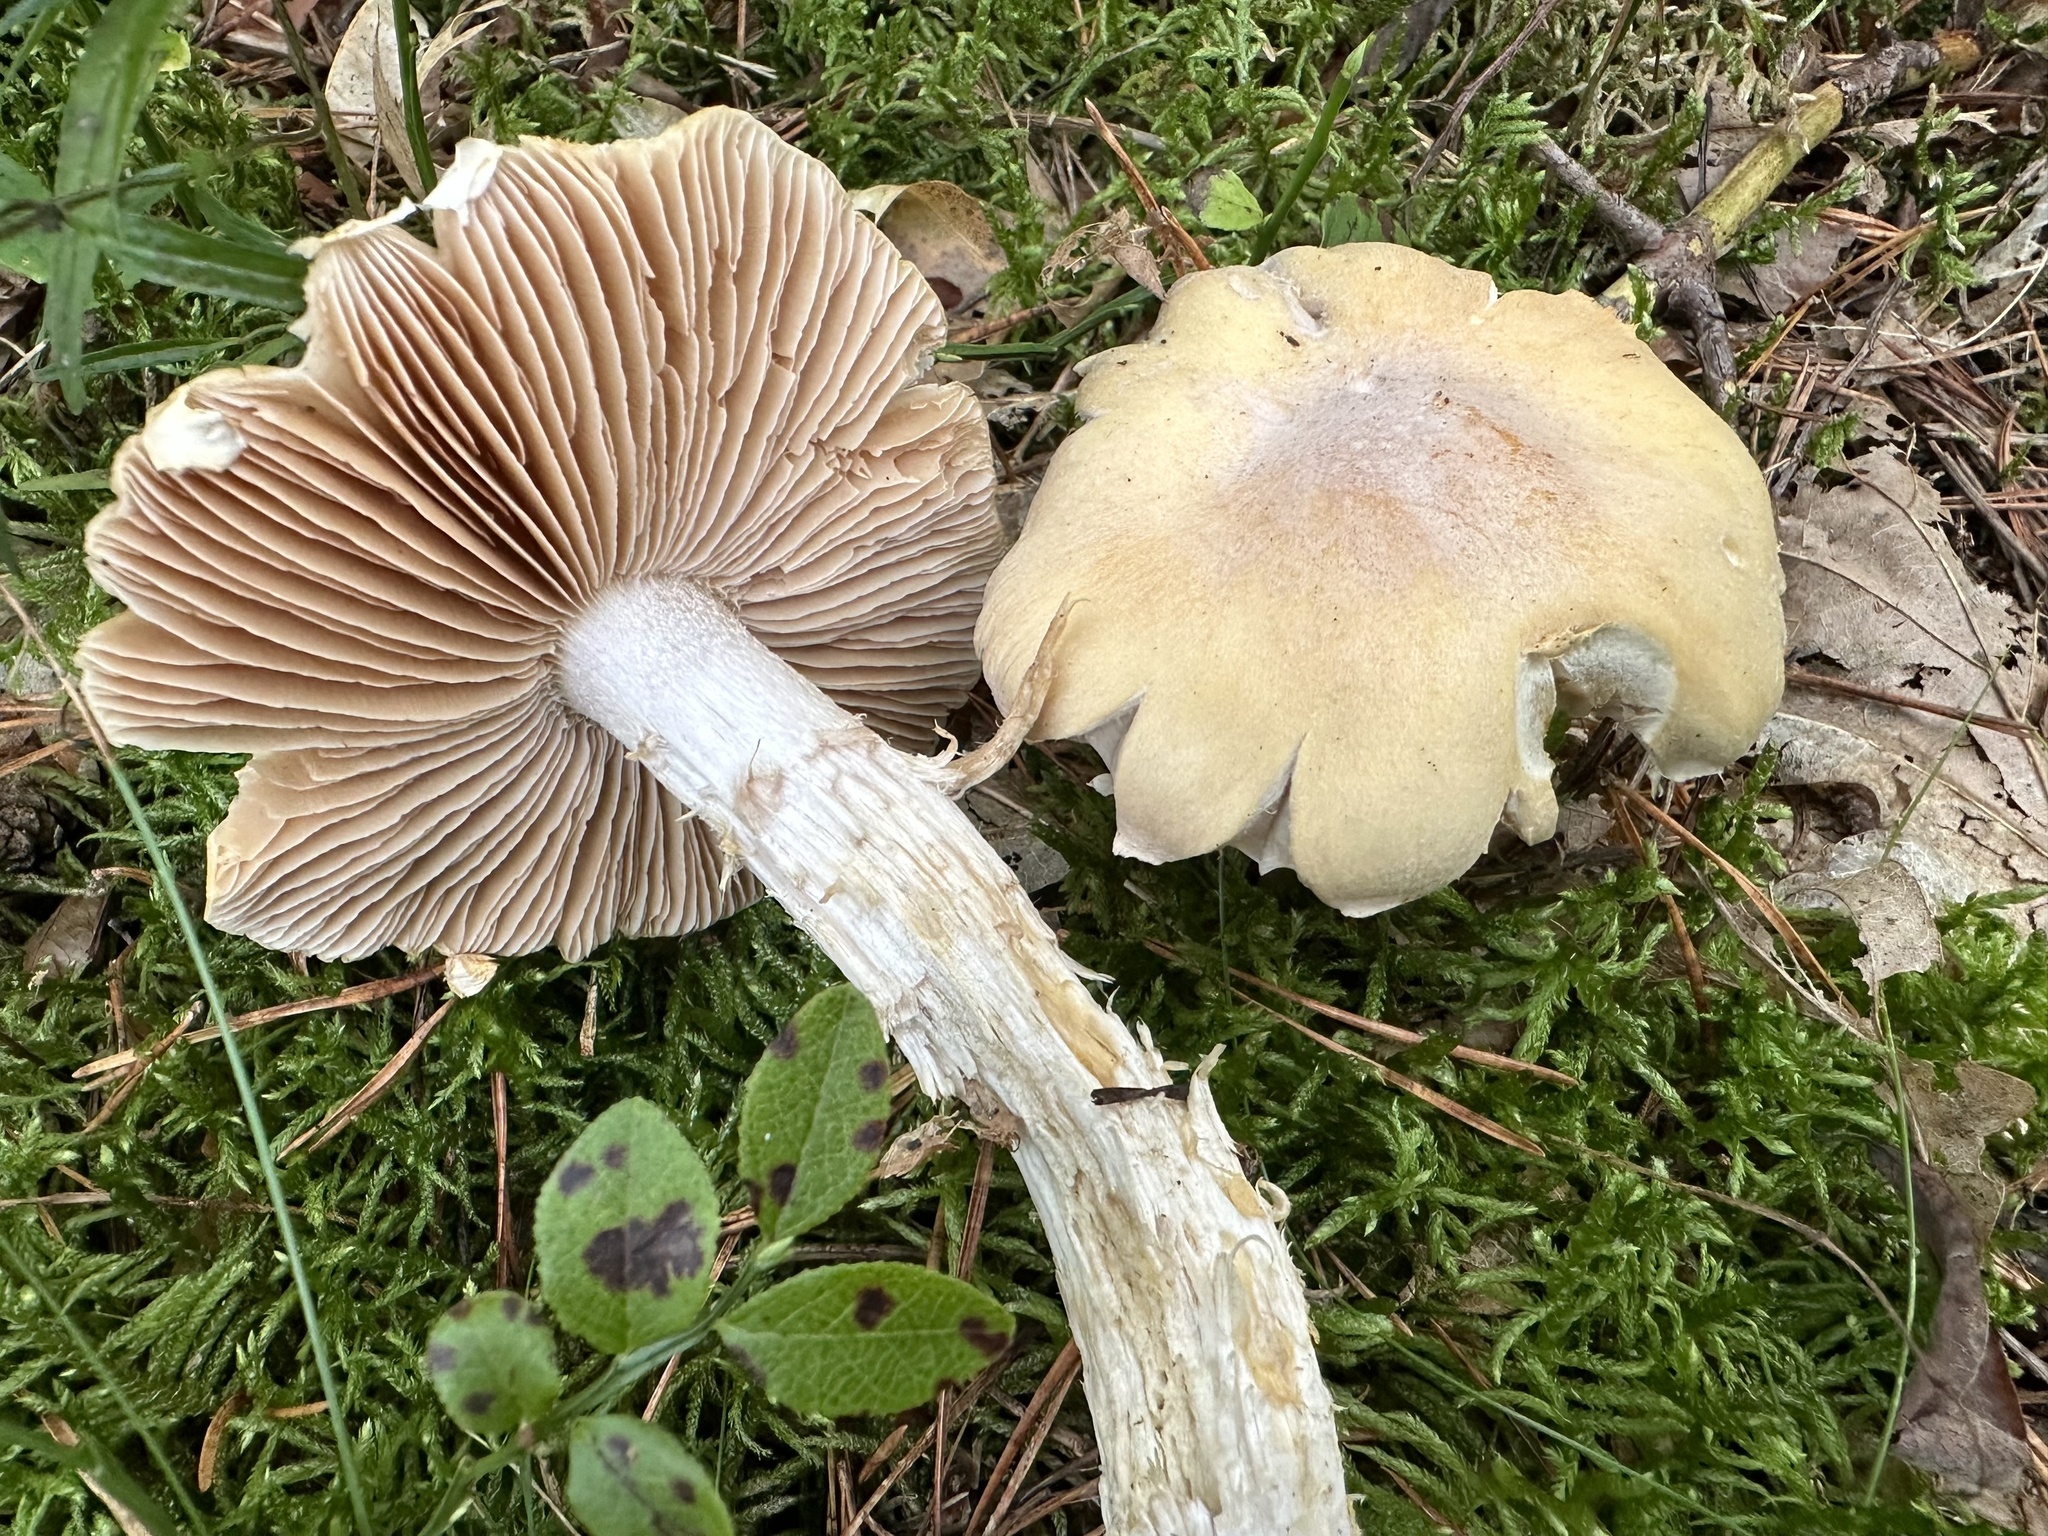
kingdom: Fungi
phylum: Basidiomycota
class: Agaricomycetes
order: Agaricales
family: Cortinariaceae
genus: Cortinarius
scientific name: Cortinarius caperatus
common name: The gypsy
